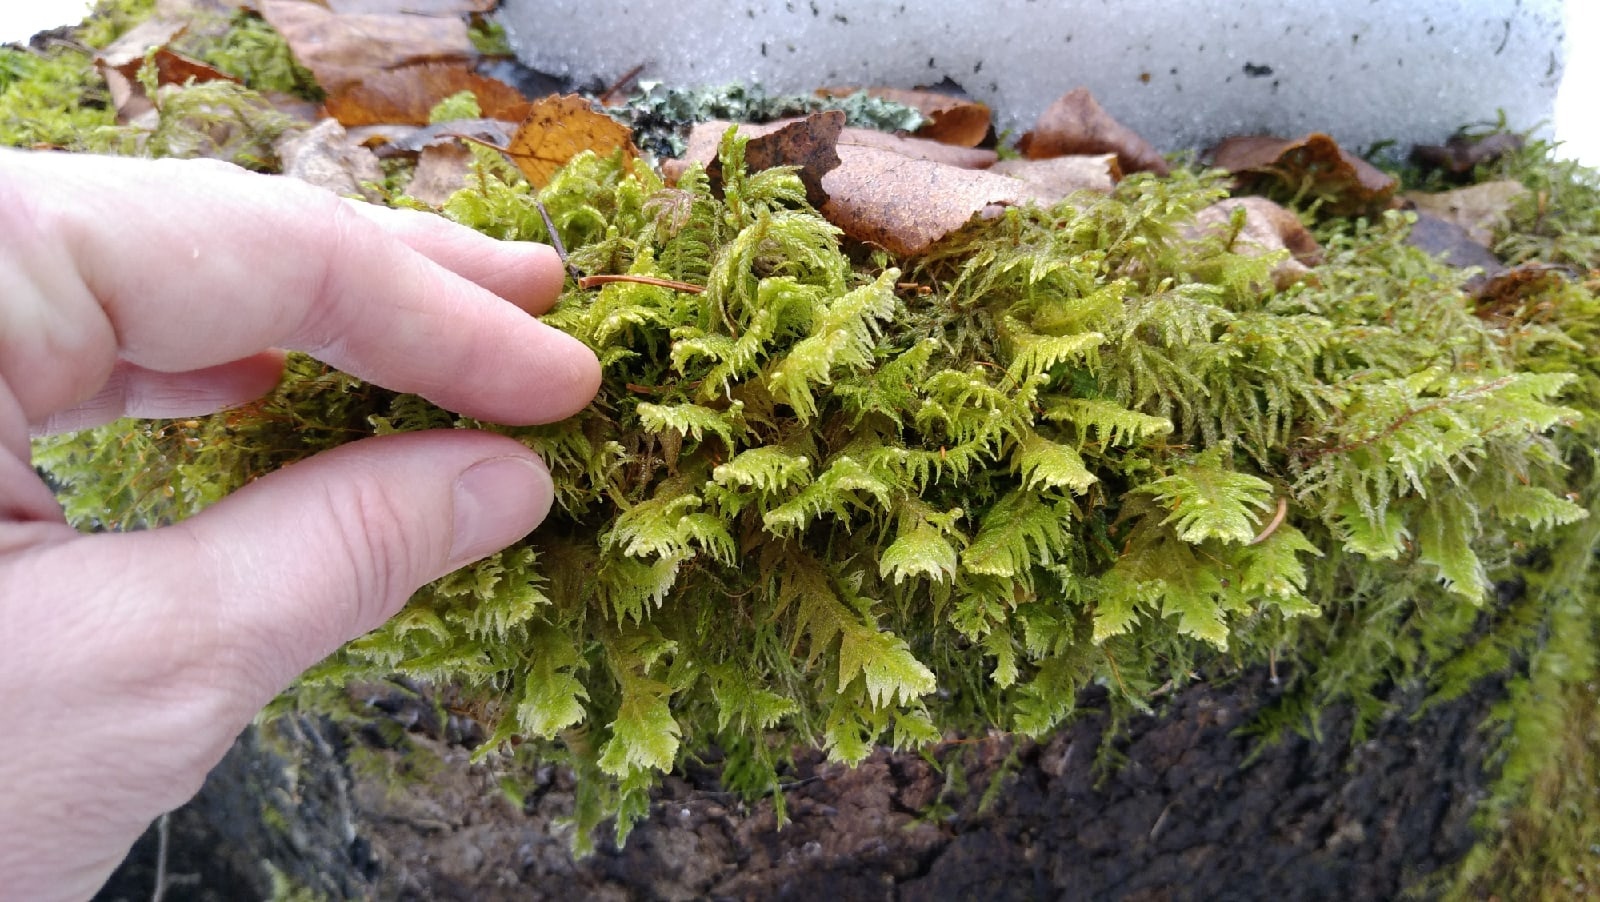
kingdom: Plantae
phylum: Bryophyta
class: Bryopsida
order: Hypnales
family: Pylaisiaceae
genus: Ptilium
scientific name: Ptilium crista-castrensis
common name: Knight's plume moss
